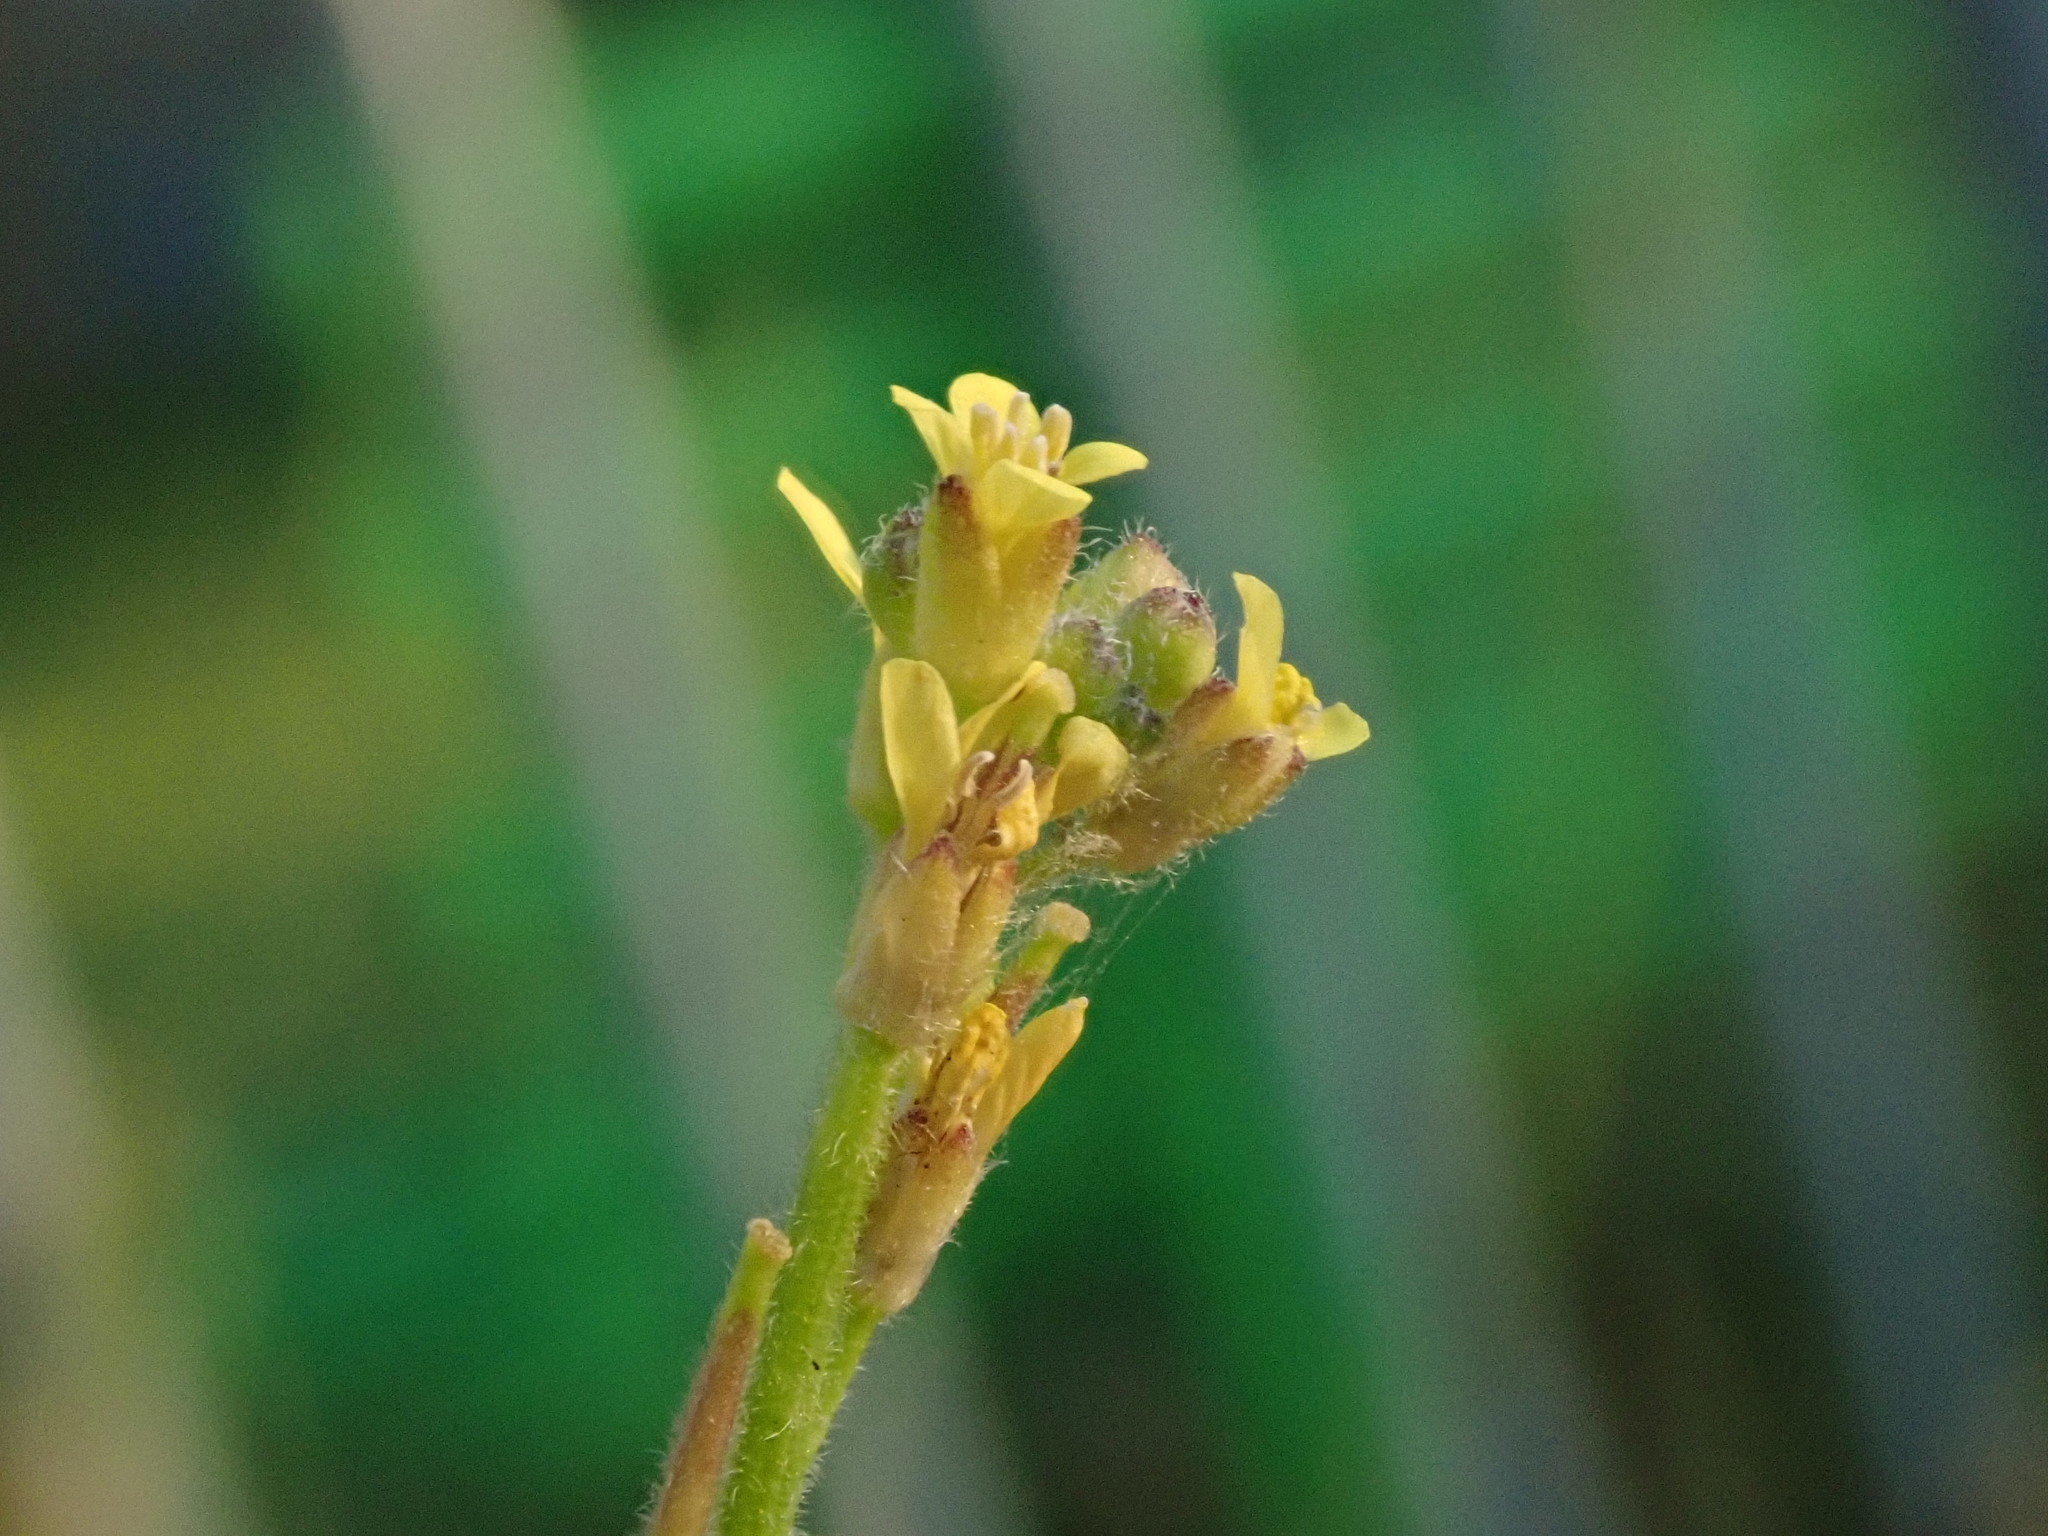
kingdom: Plantae
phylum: Tracheophyta
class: Magnoliopsida
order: Brassicales
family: Brassicaceae
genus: Sisymbrium
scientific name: Sisymbrium officinale
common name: Hedge mustard
